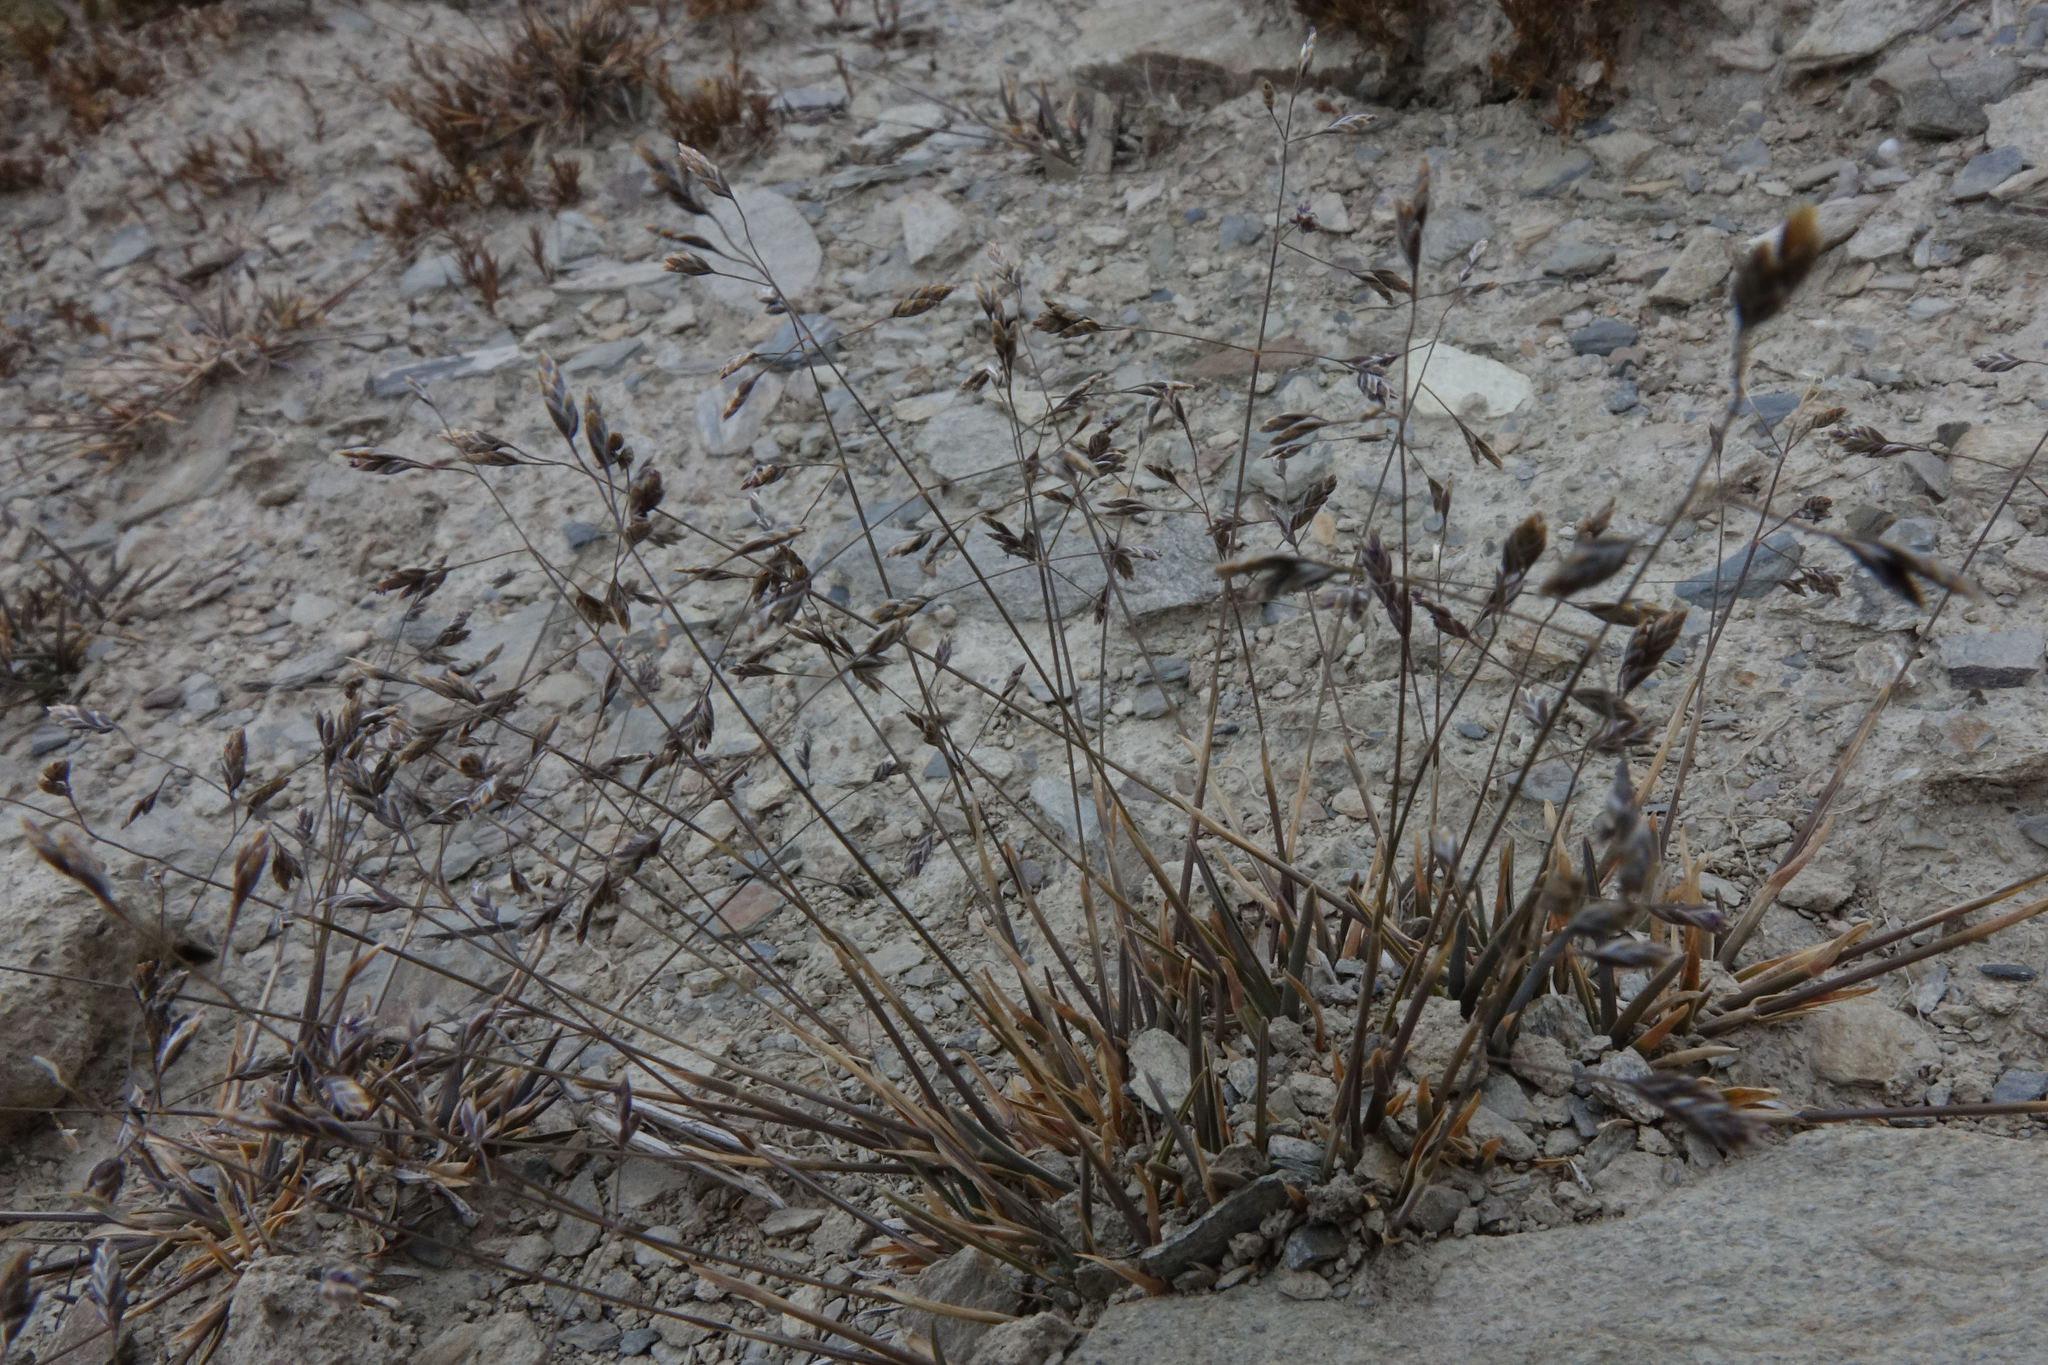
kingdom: Plantae
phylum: Tracheophyta
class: Liliopsida
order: Poales
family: Poaceae
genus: Poa
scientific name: Poa lindsayi
